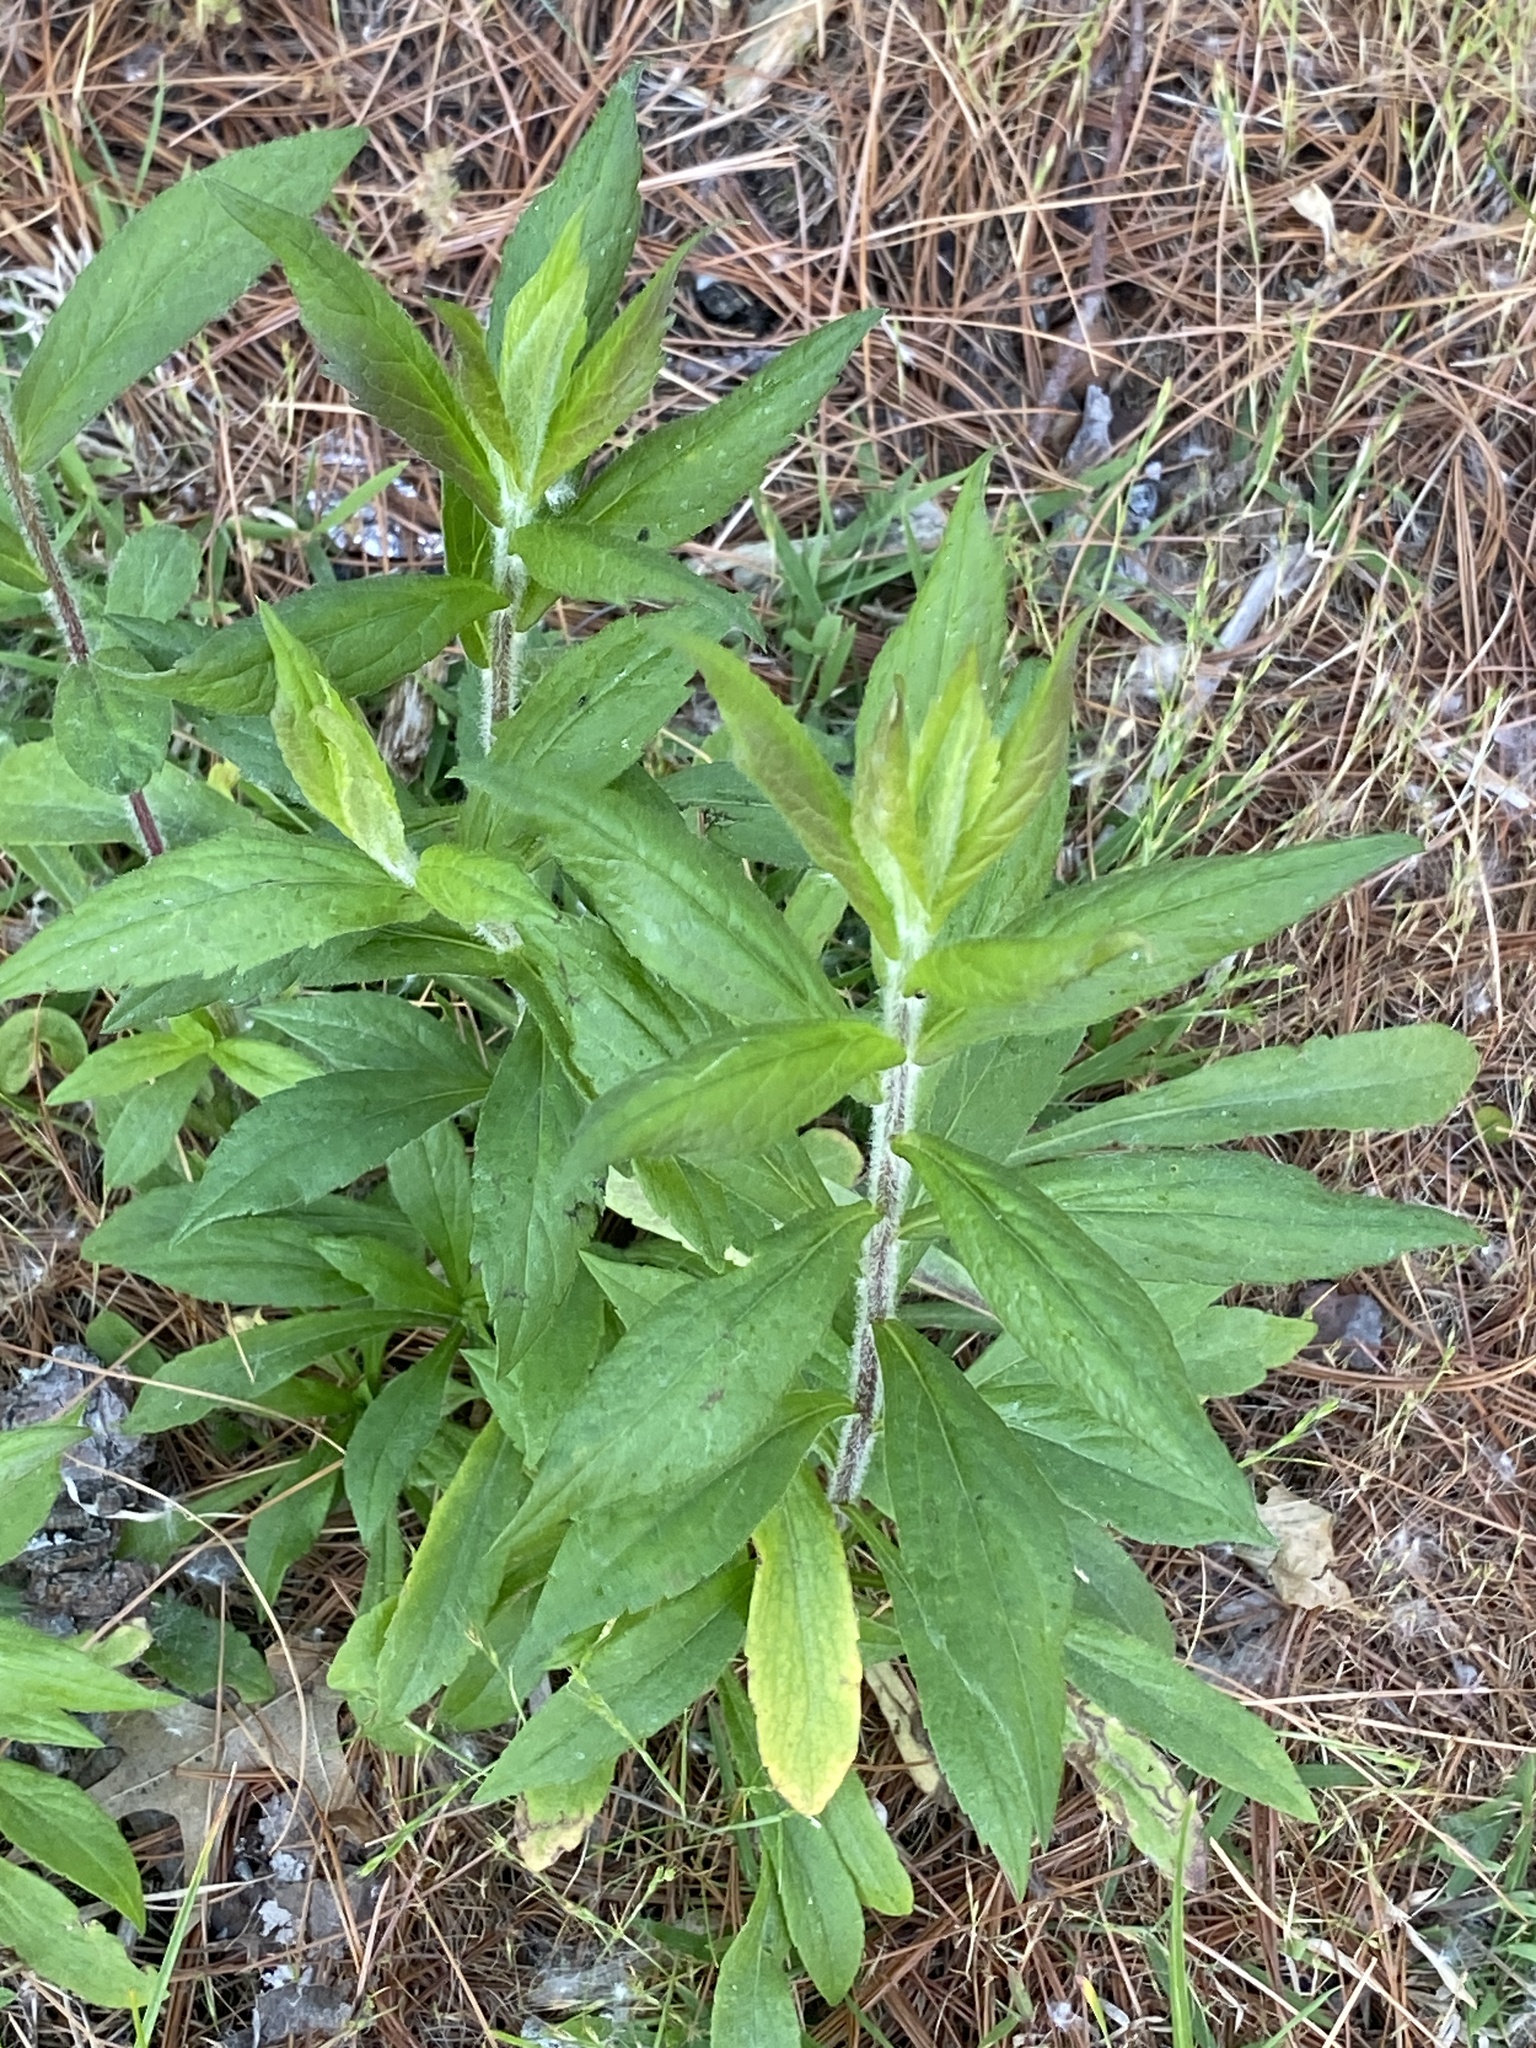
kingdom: Plantae
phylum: Tracheophyta
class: Magnoliopsida
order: Asterales
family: Asteraceae
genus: Solidago
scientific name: Solidago rugosa
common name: Rough-stemmed goldenrod
